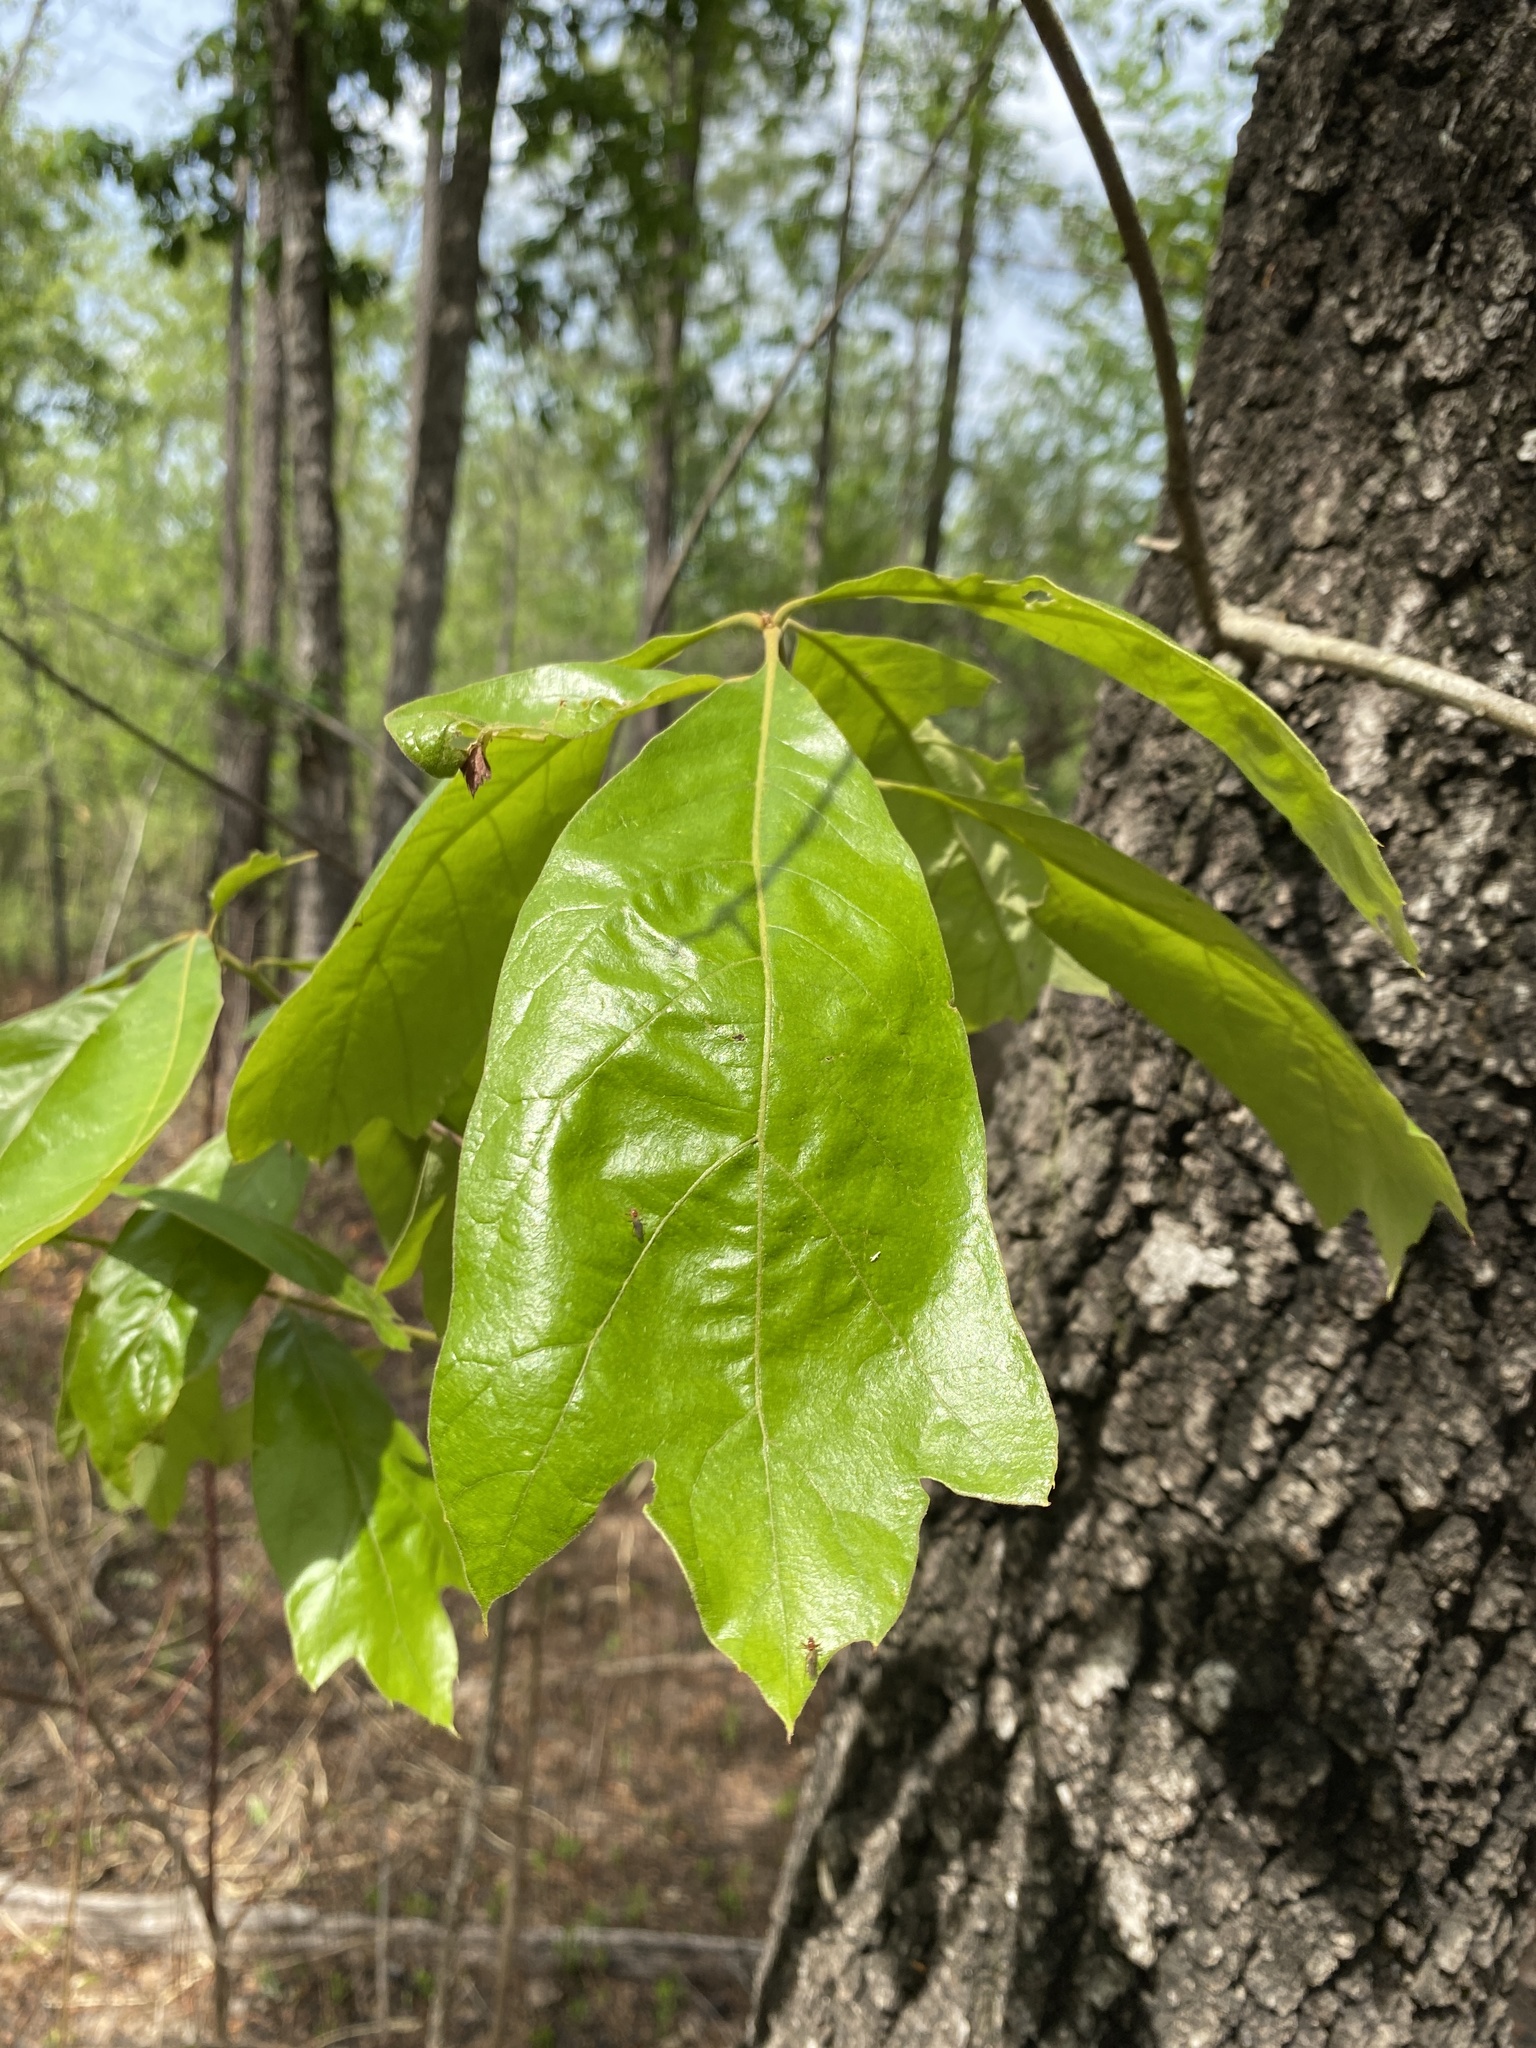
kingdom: Plantae
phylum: Tracheophyta
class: Magnoliopsida
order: Fagales
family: Fagaceae
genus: Quercus
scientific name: Quercus falcata
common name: Southern red oak
